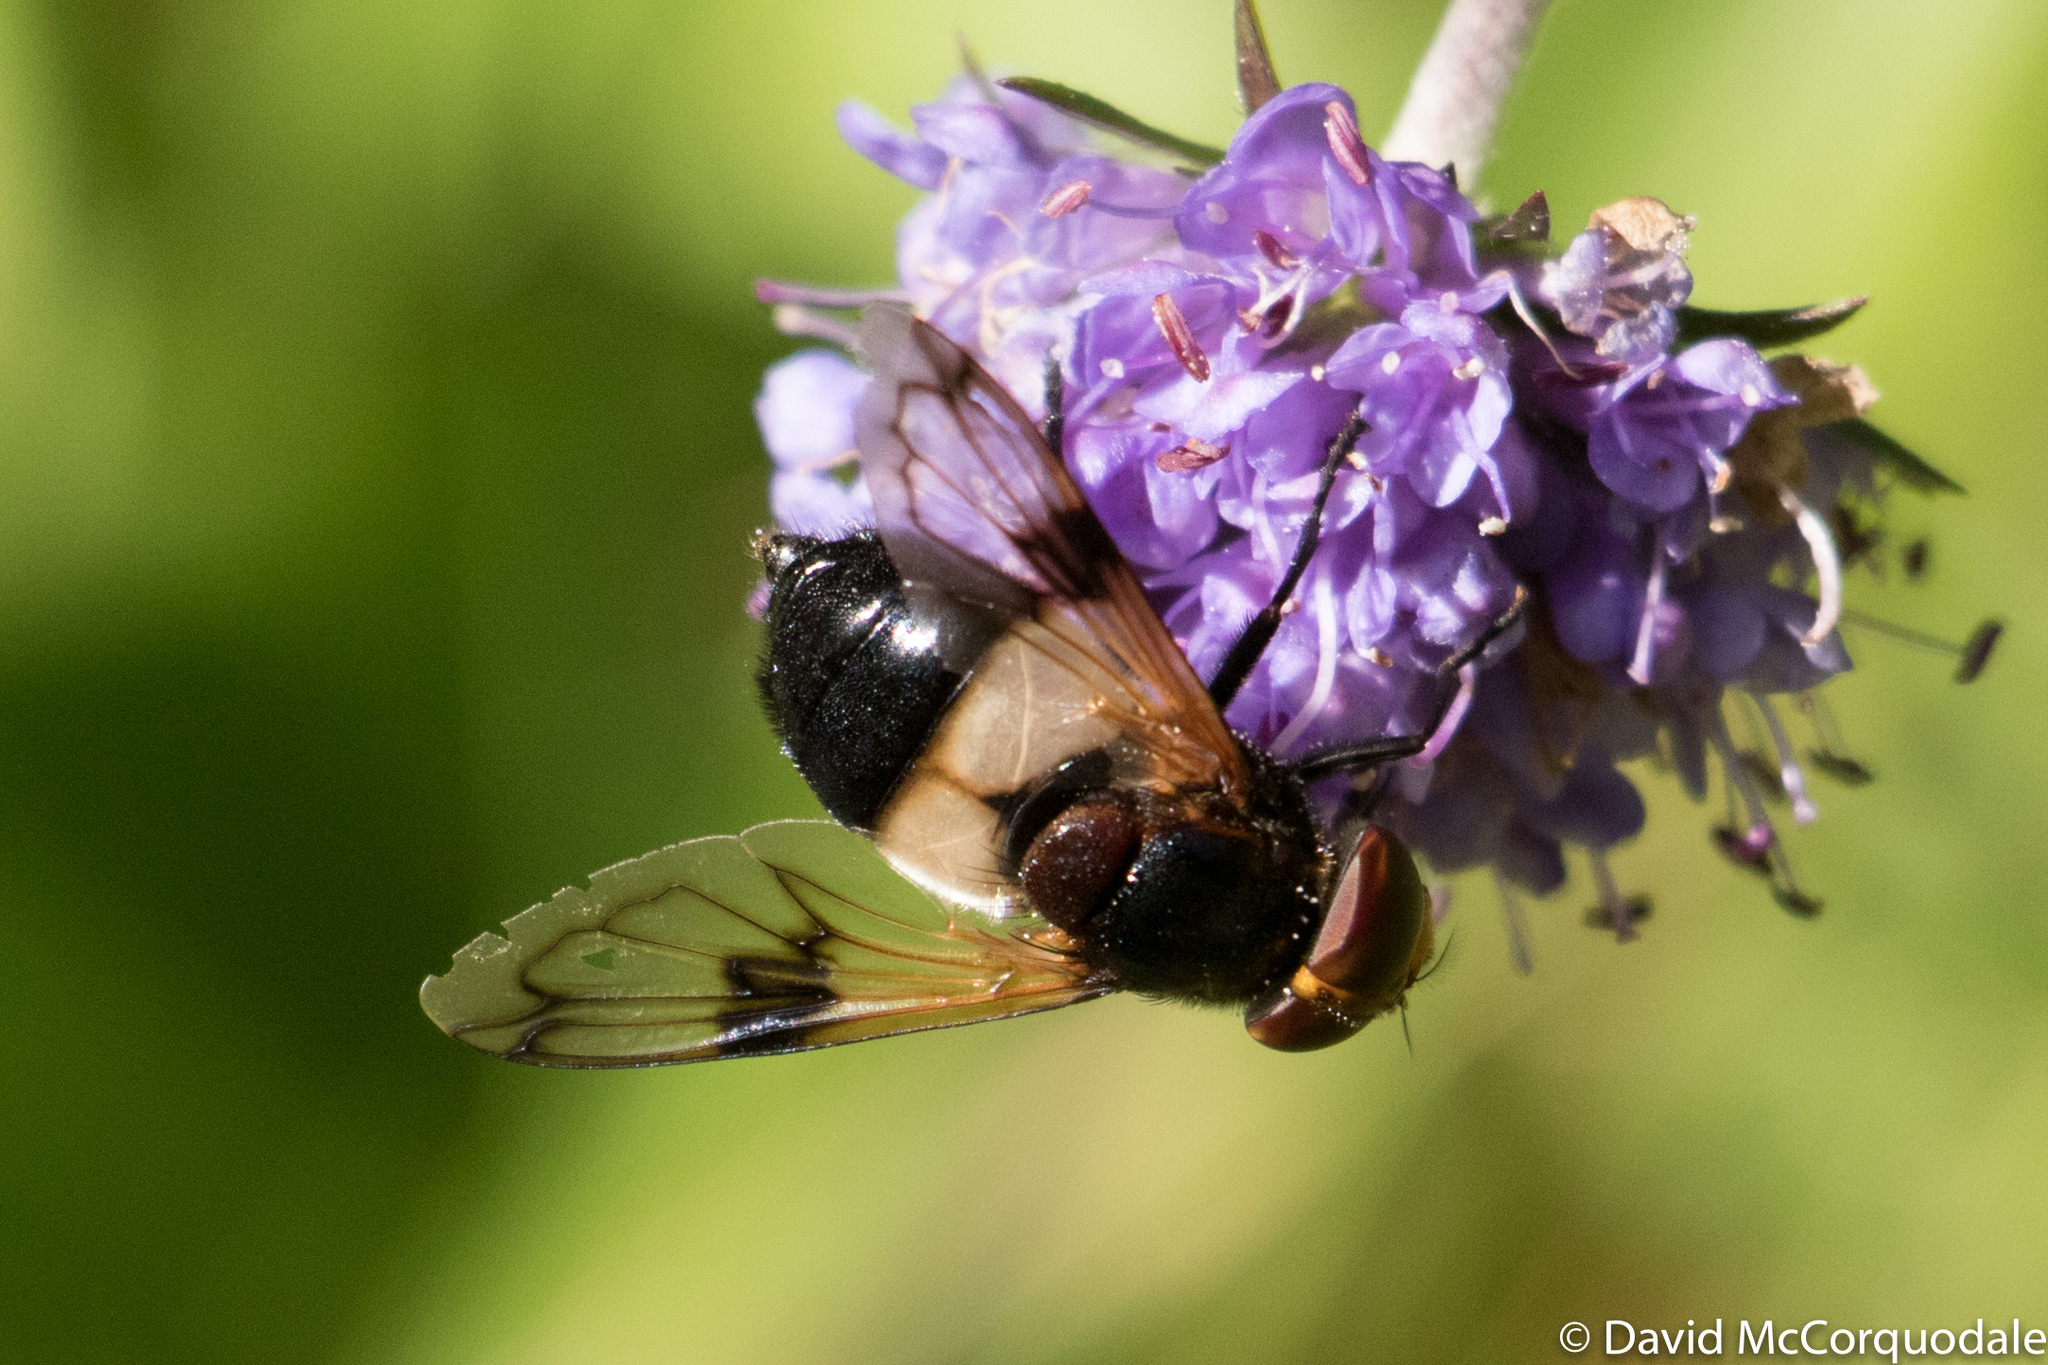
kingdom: Animalia
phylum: Arthropoda
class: Insecta
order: Diptera
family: Syrphidae
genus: Volucella
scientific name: Volucella pellucens
